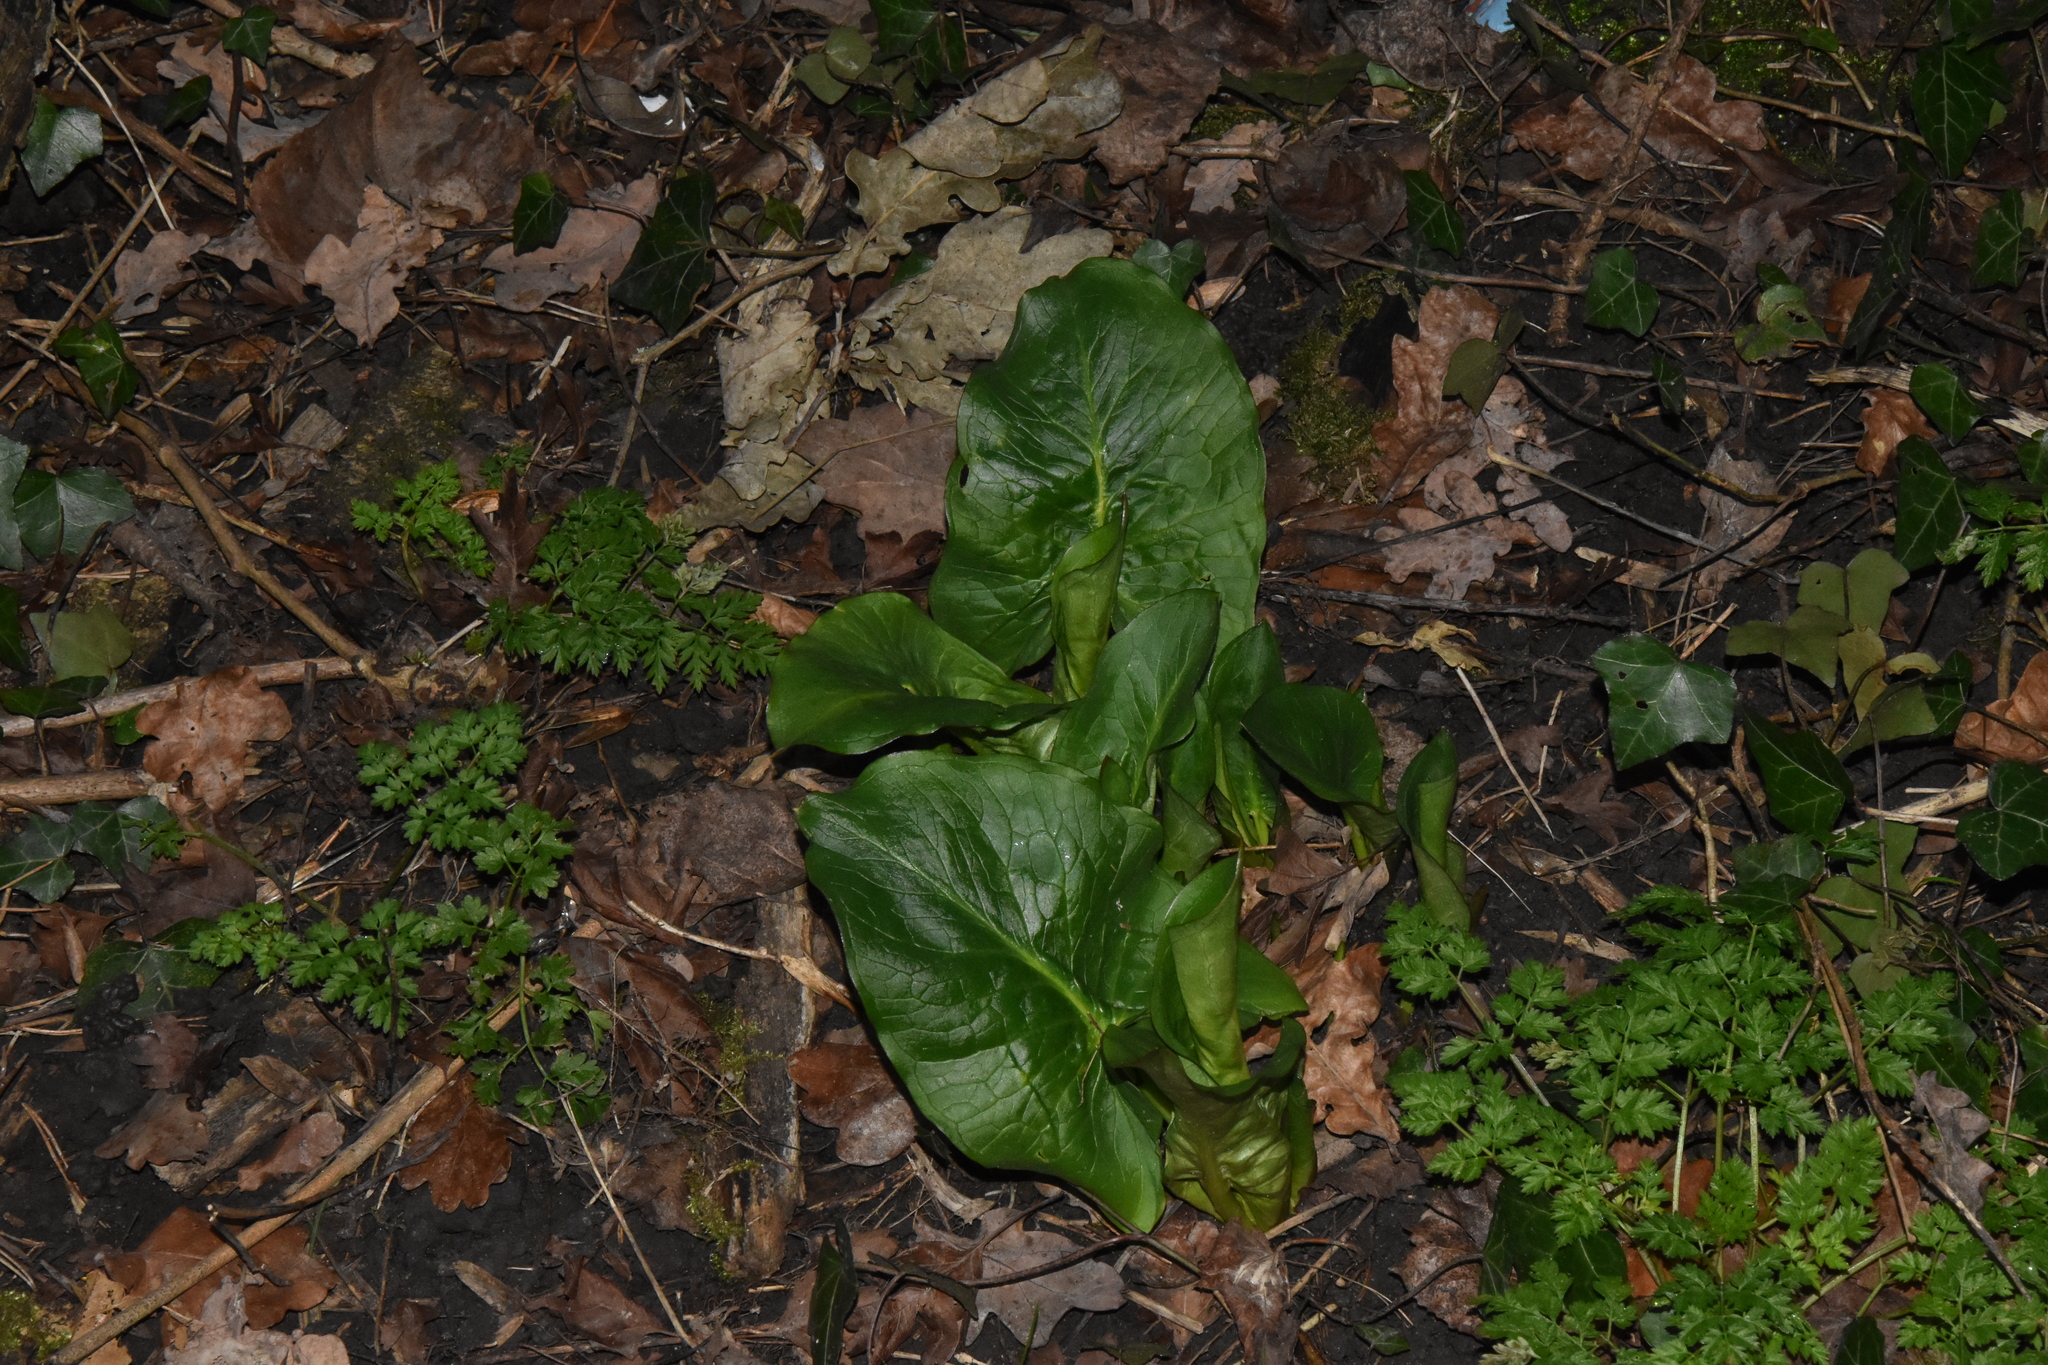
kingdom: Plantae
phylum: Tracheophyta
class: Liliopsida
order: Alismatales
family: Araceae
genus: Arum
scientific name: Arum maculatum
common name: Lords-and-ladies
